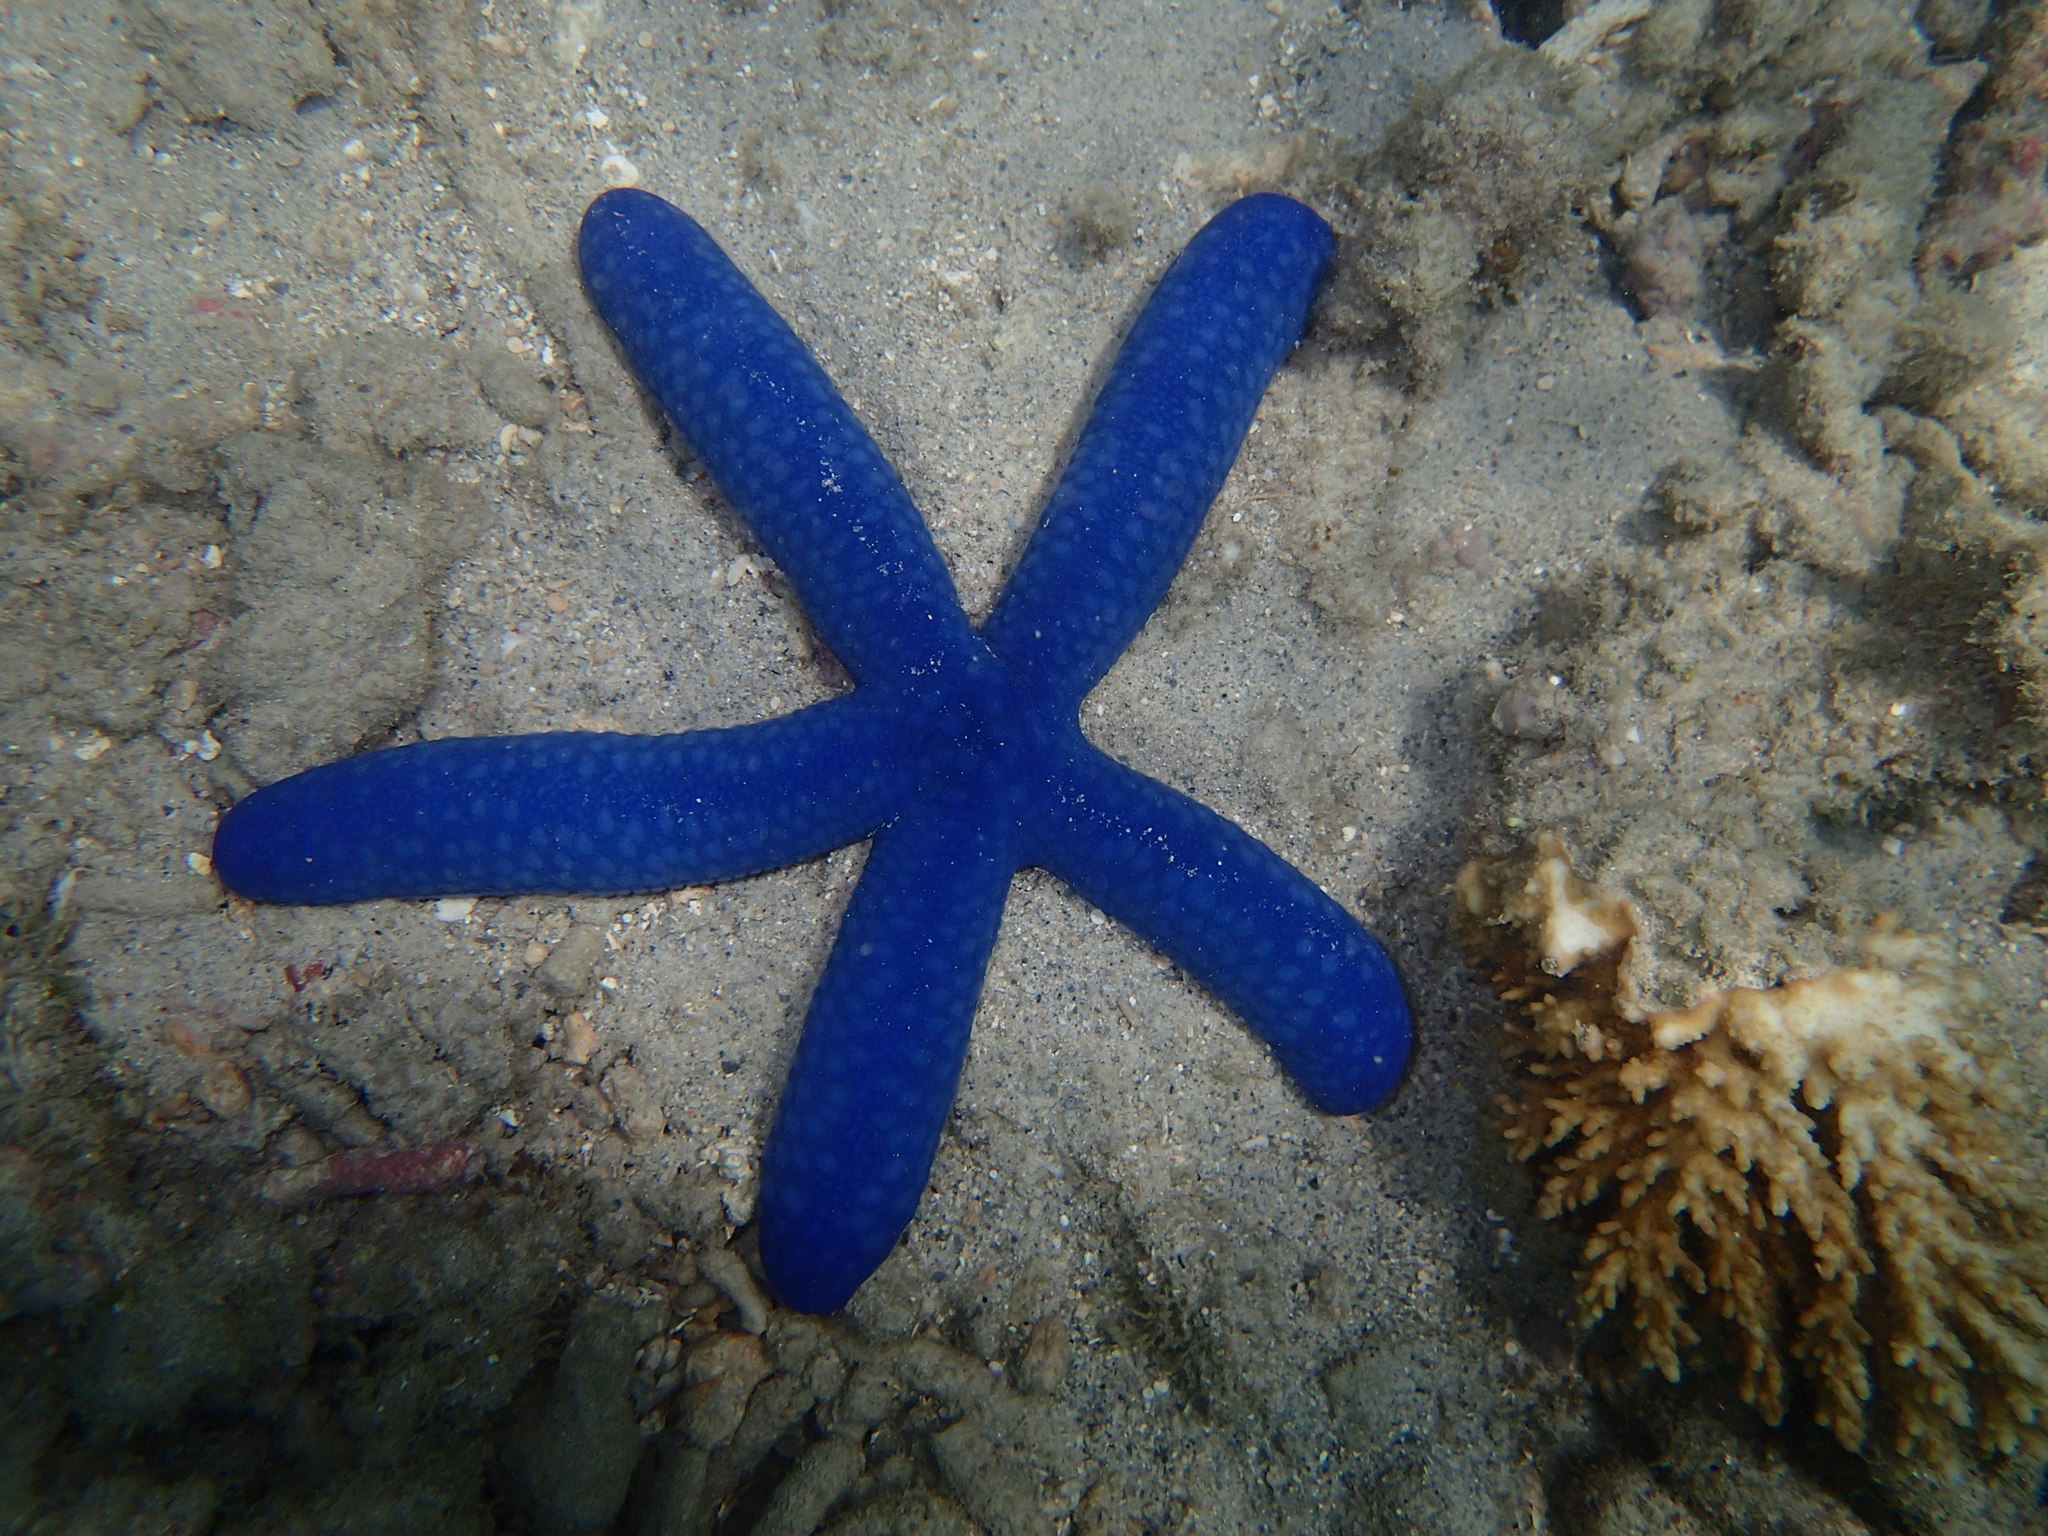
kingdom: Animalia
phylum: Echinodermata
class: Asteroidea
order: Valvatida
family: Ophidiasteridae
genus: Linckia
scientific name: Linckia laevigata
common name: Azure sea star
